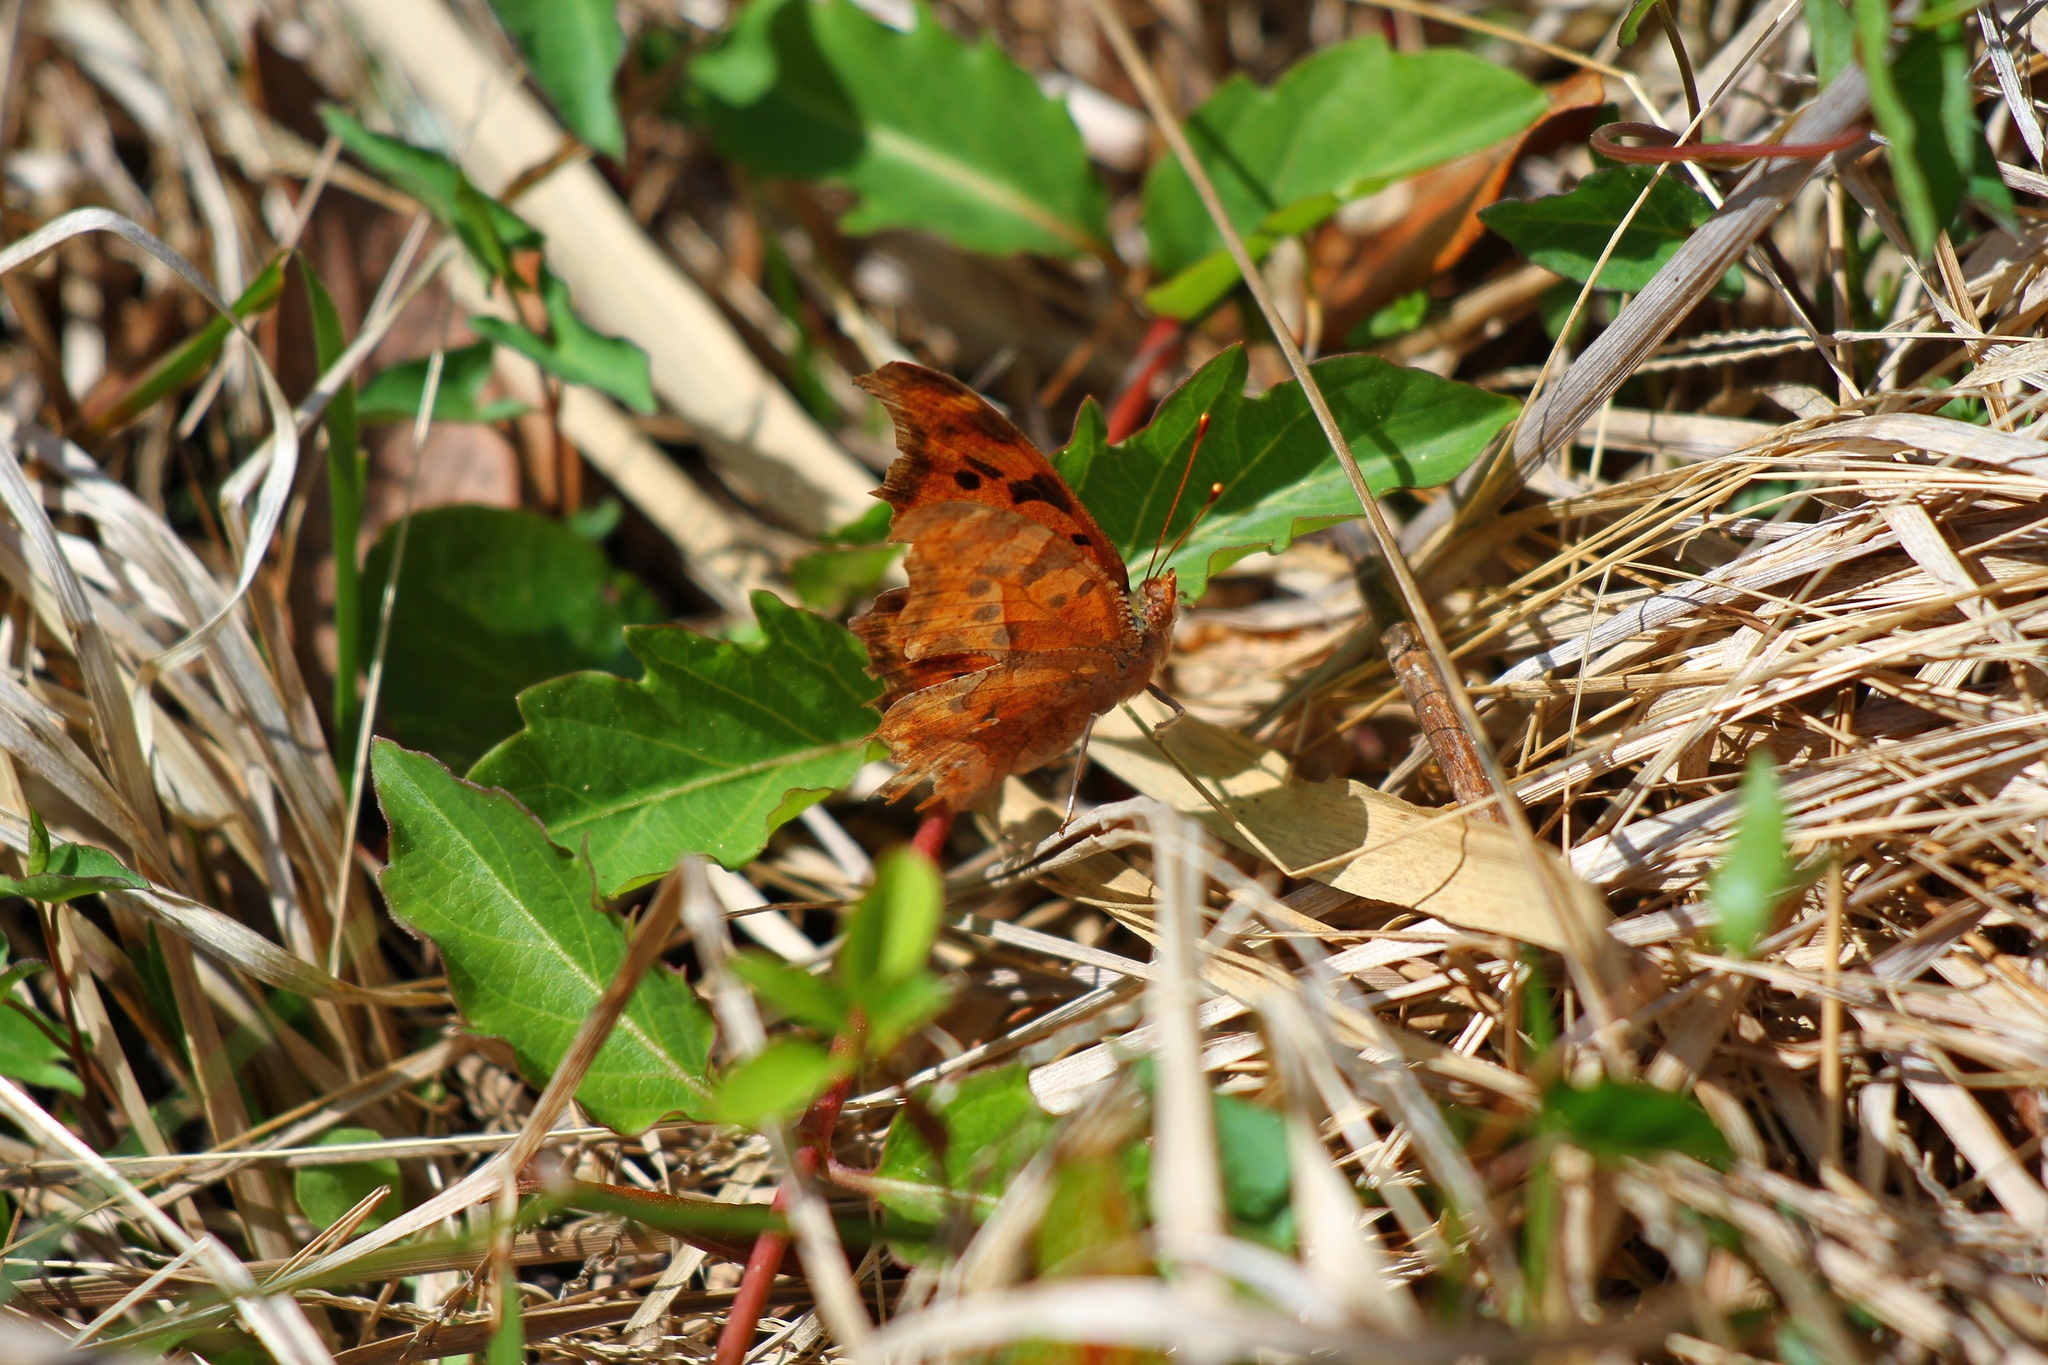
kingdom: Animalia
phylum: Arthropoda
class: Insecta
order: Lepidoptera
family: Nymphalidae
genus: Polygonia
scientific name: Polygonia interrogationis
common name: Question mark
